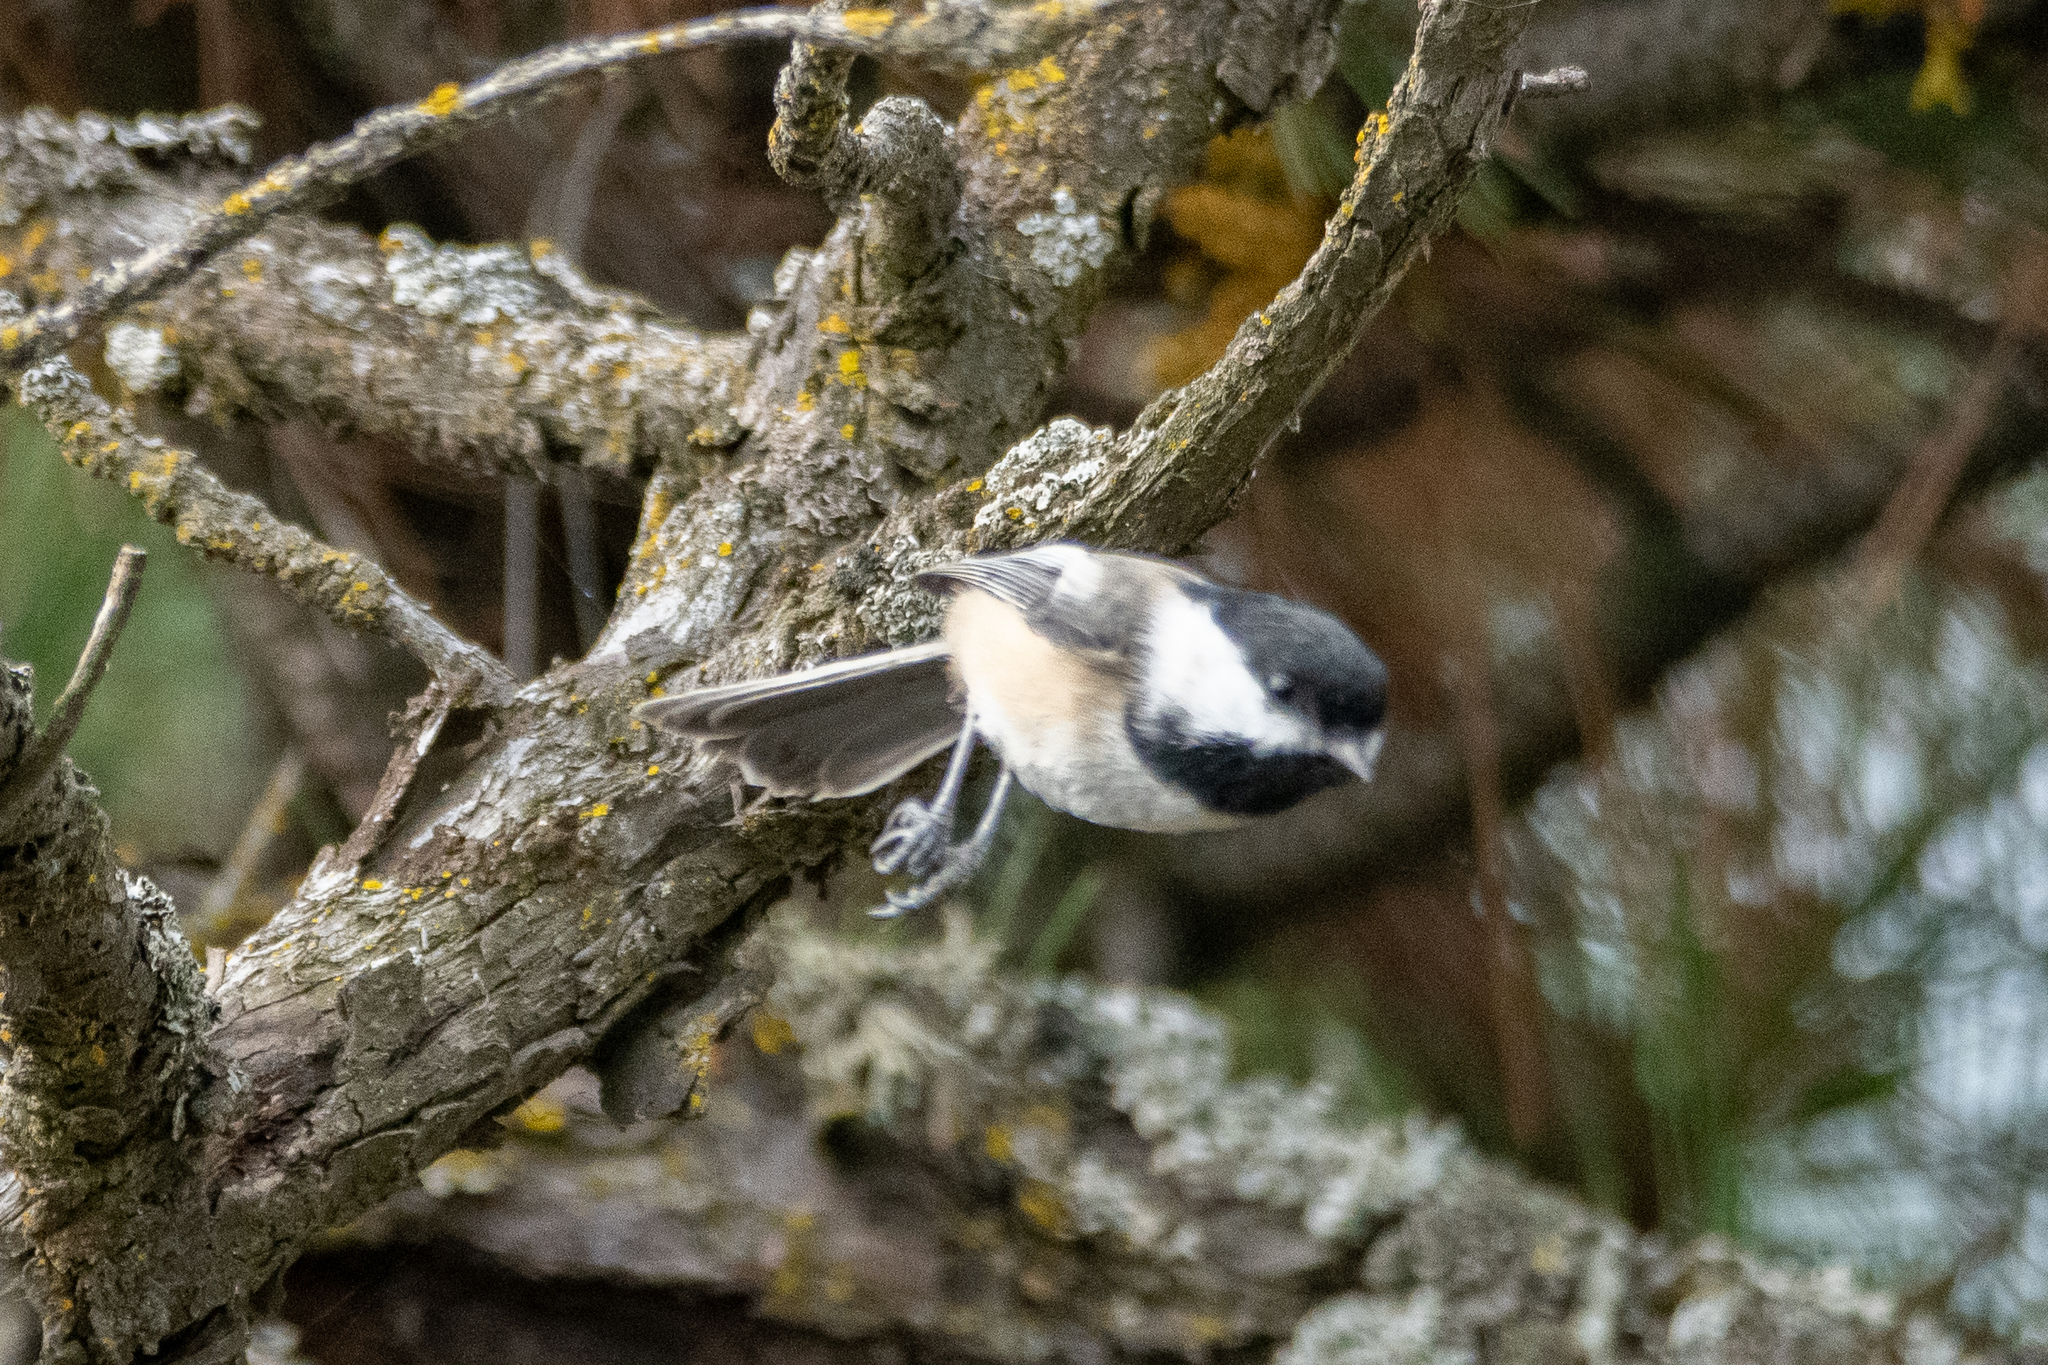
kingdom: Animalia
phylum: Chordata
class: Aves
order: Passeriformes
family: Paridae
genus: Poecile
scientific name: Poecile atricapillus
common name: Black-capped chickadee
